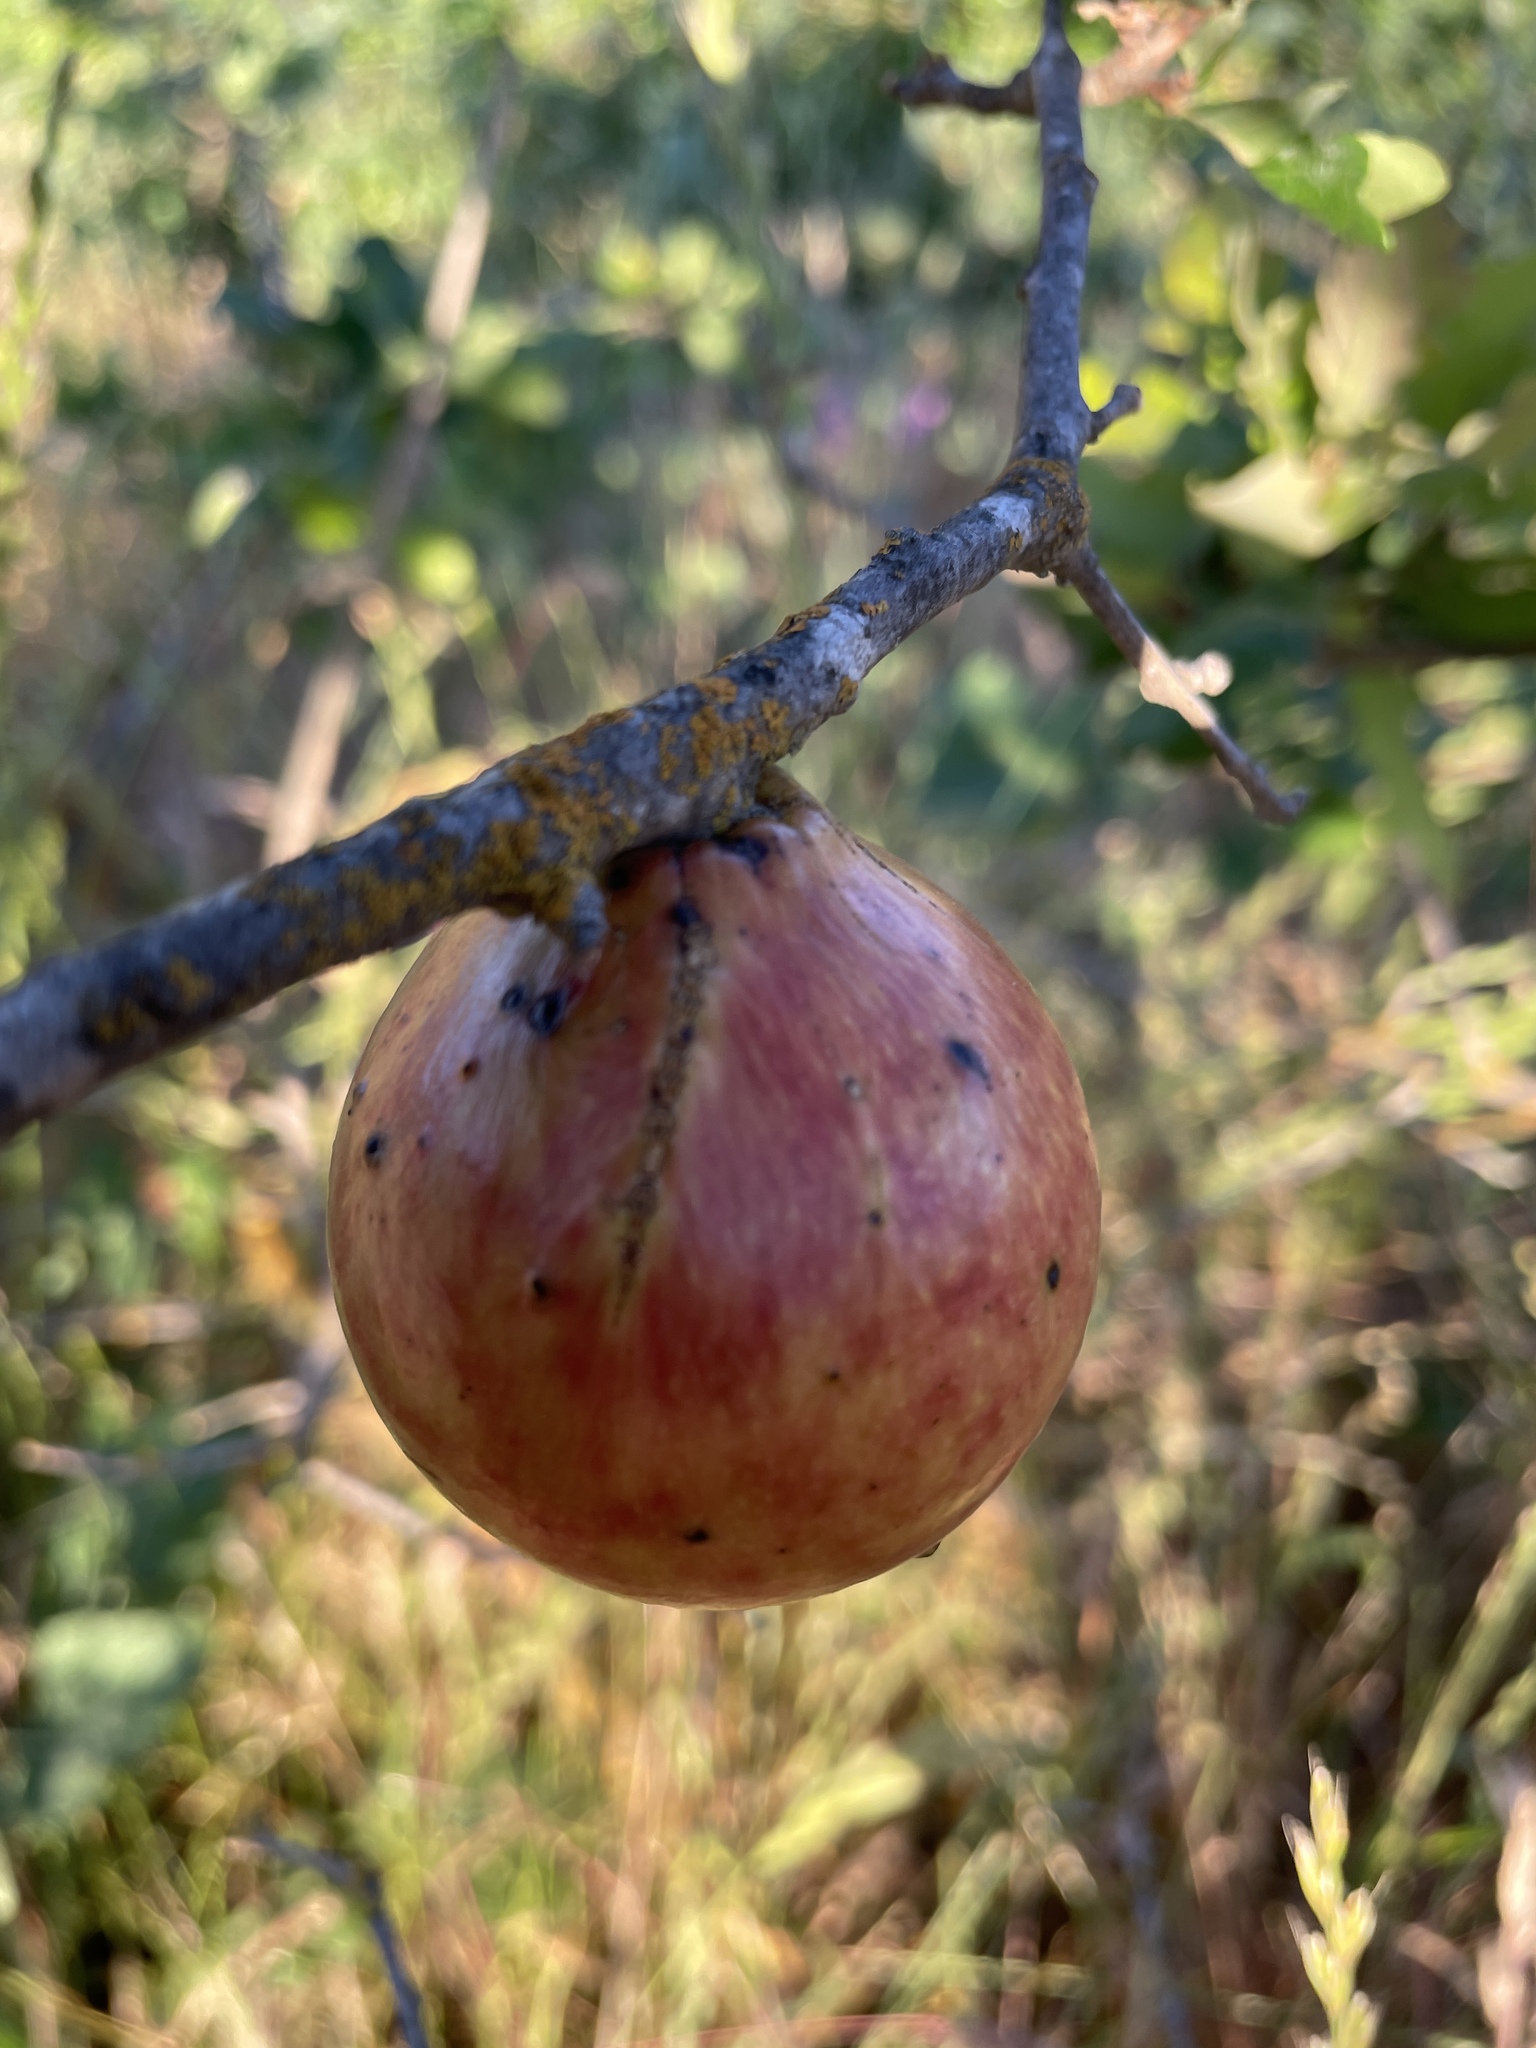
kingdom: Animalia
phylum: Arthropoda
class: Insecta
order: Hymenoptera
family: Cynipidae
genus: Andricus
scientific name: Andricus quercuscalifornicus
